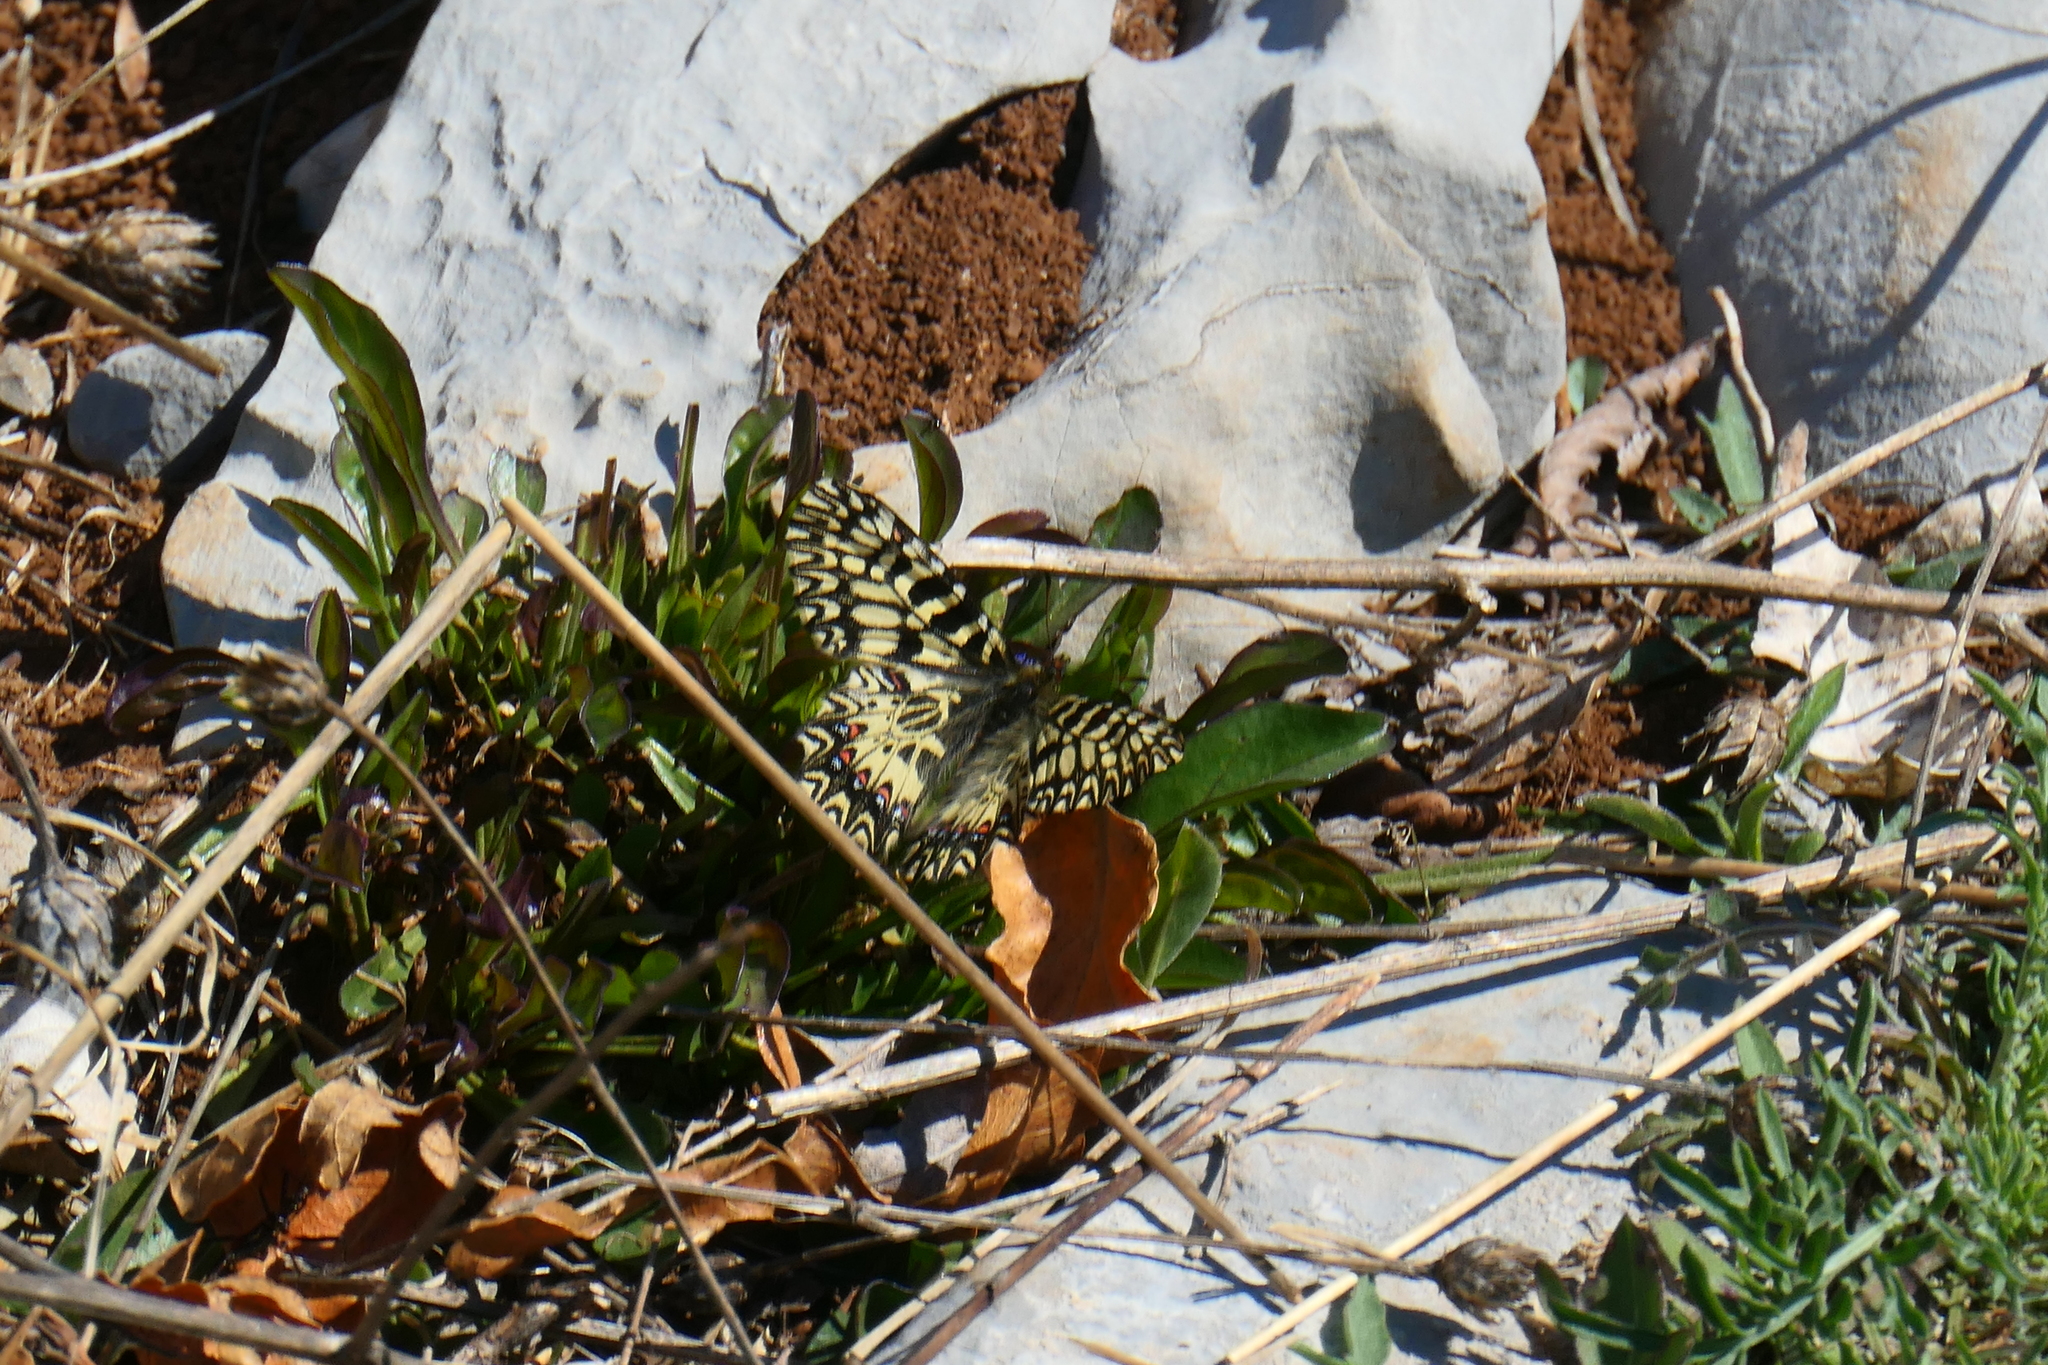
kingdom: Animalia
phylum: Arthropoda
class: Insecta
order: Lepidoptera
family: Papilionidae
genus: Zerynthia
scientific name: Zerynthia polyxena
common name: Southern festoon
